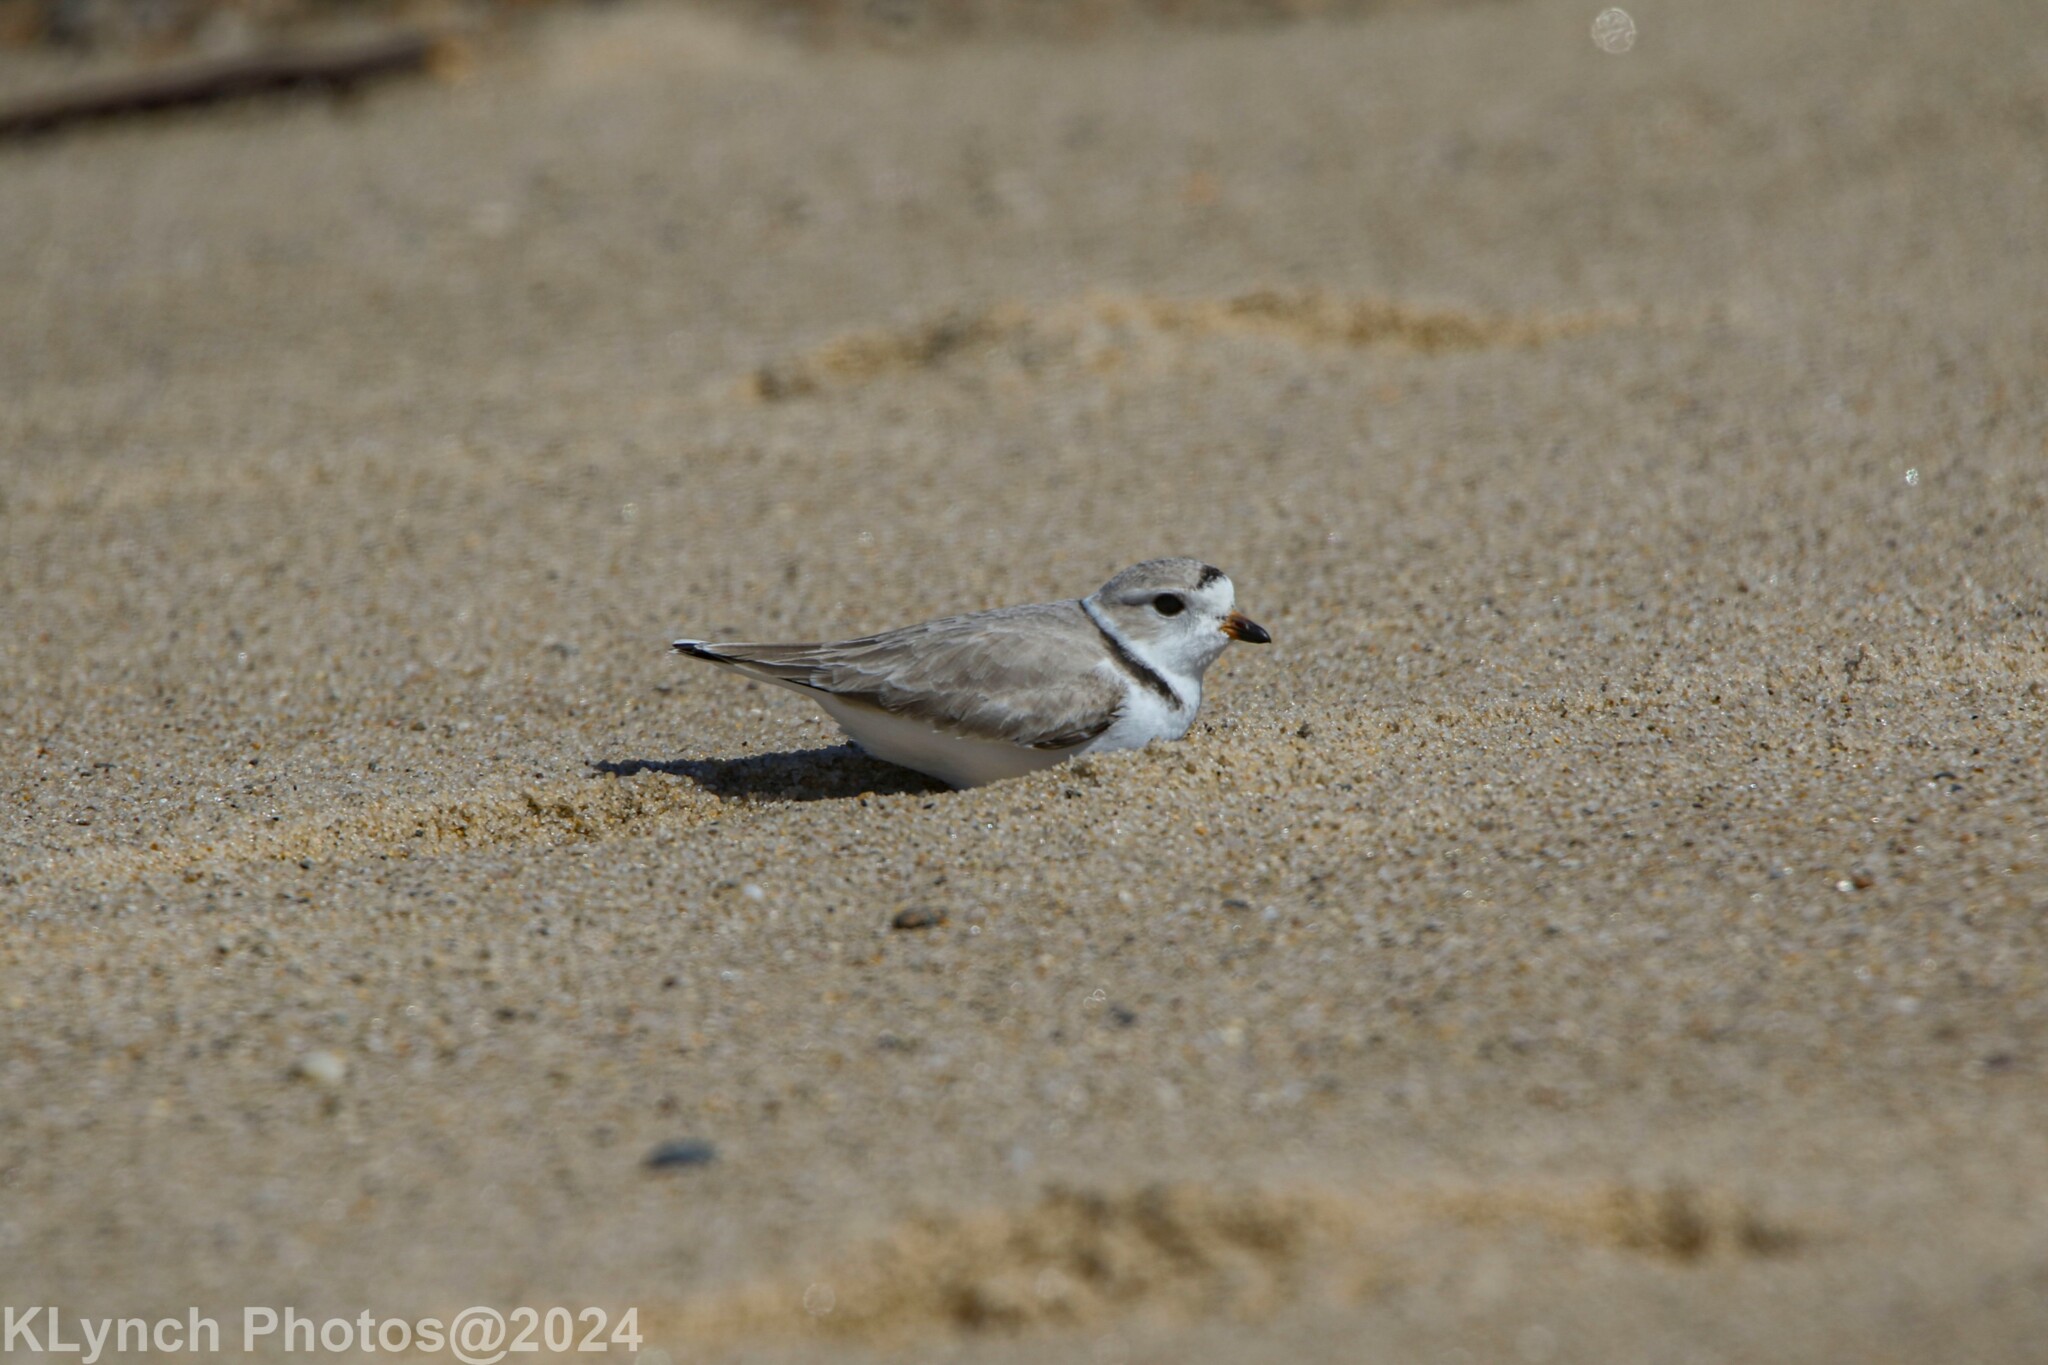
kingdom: Animalia
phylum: Chordata
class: Aves
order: Charadriiformes
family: Charadriidae
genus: Charadrius
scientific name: Charadrius melodus
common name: Piping plover
